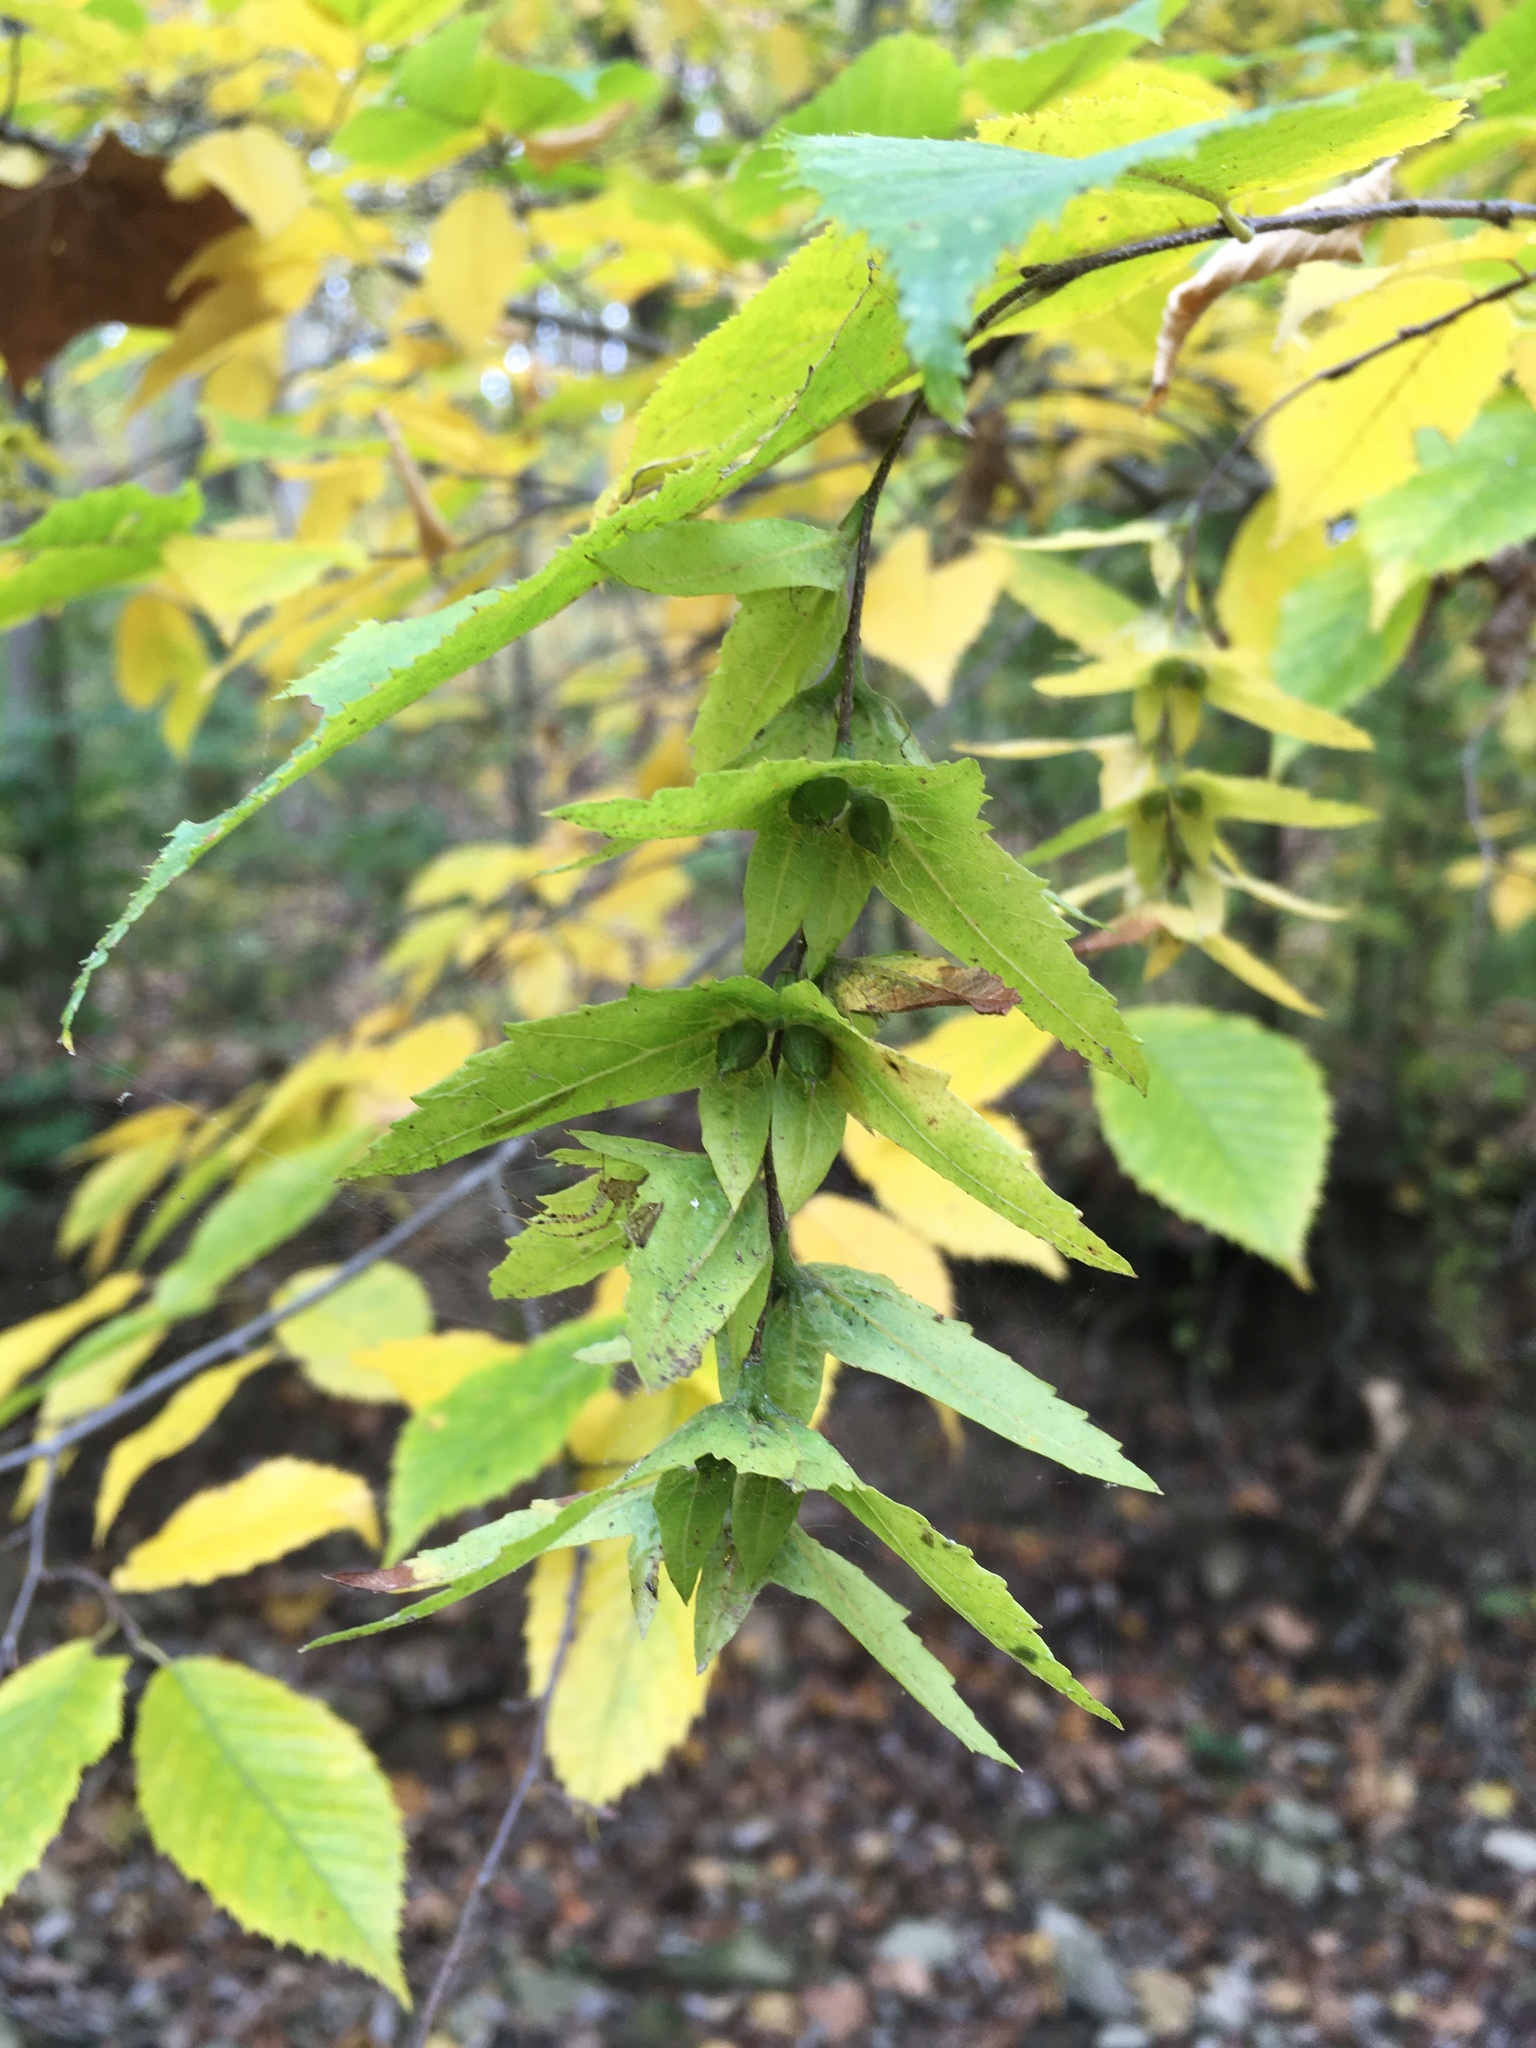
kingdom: Plantae
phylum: Tracheophyta
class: Magnoliopsida
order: Fagales
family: Betulaceae
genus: Carpinus
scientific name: Carpinus caroliniana
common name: American hornbeam
